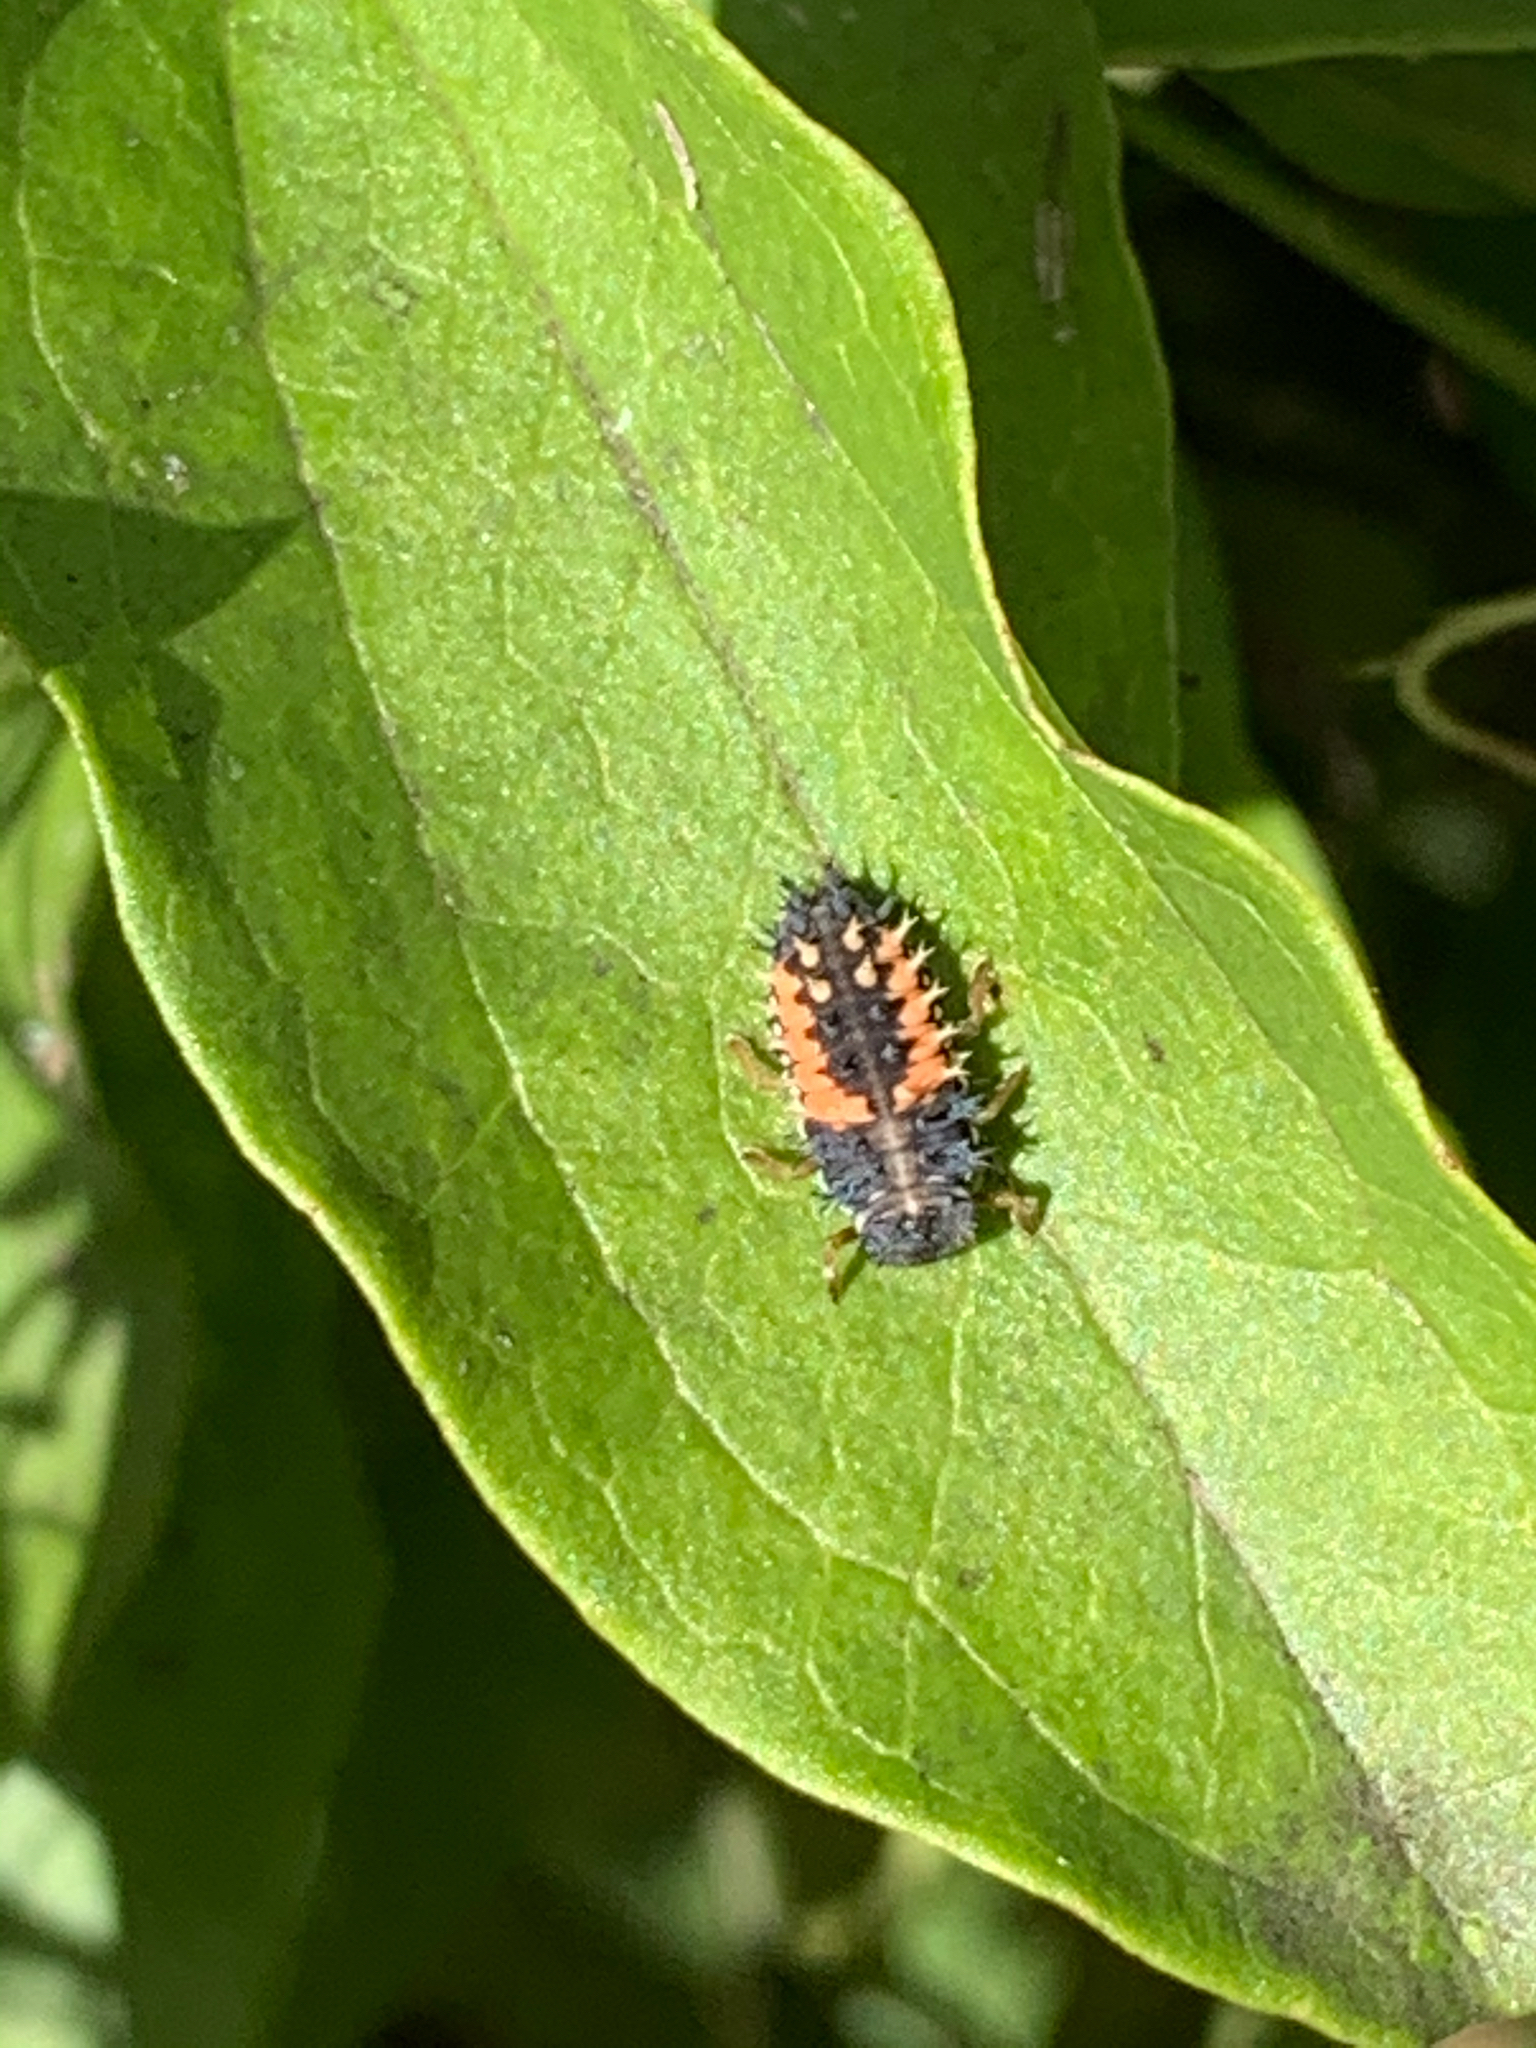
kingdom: Animalia
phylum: Arthropoda
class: Insecta
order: Coleoptera
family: Coccinellidae
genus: Harmonia
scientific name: Harmonia axyridis
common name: Harlequin ladybird
